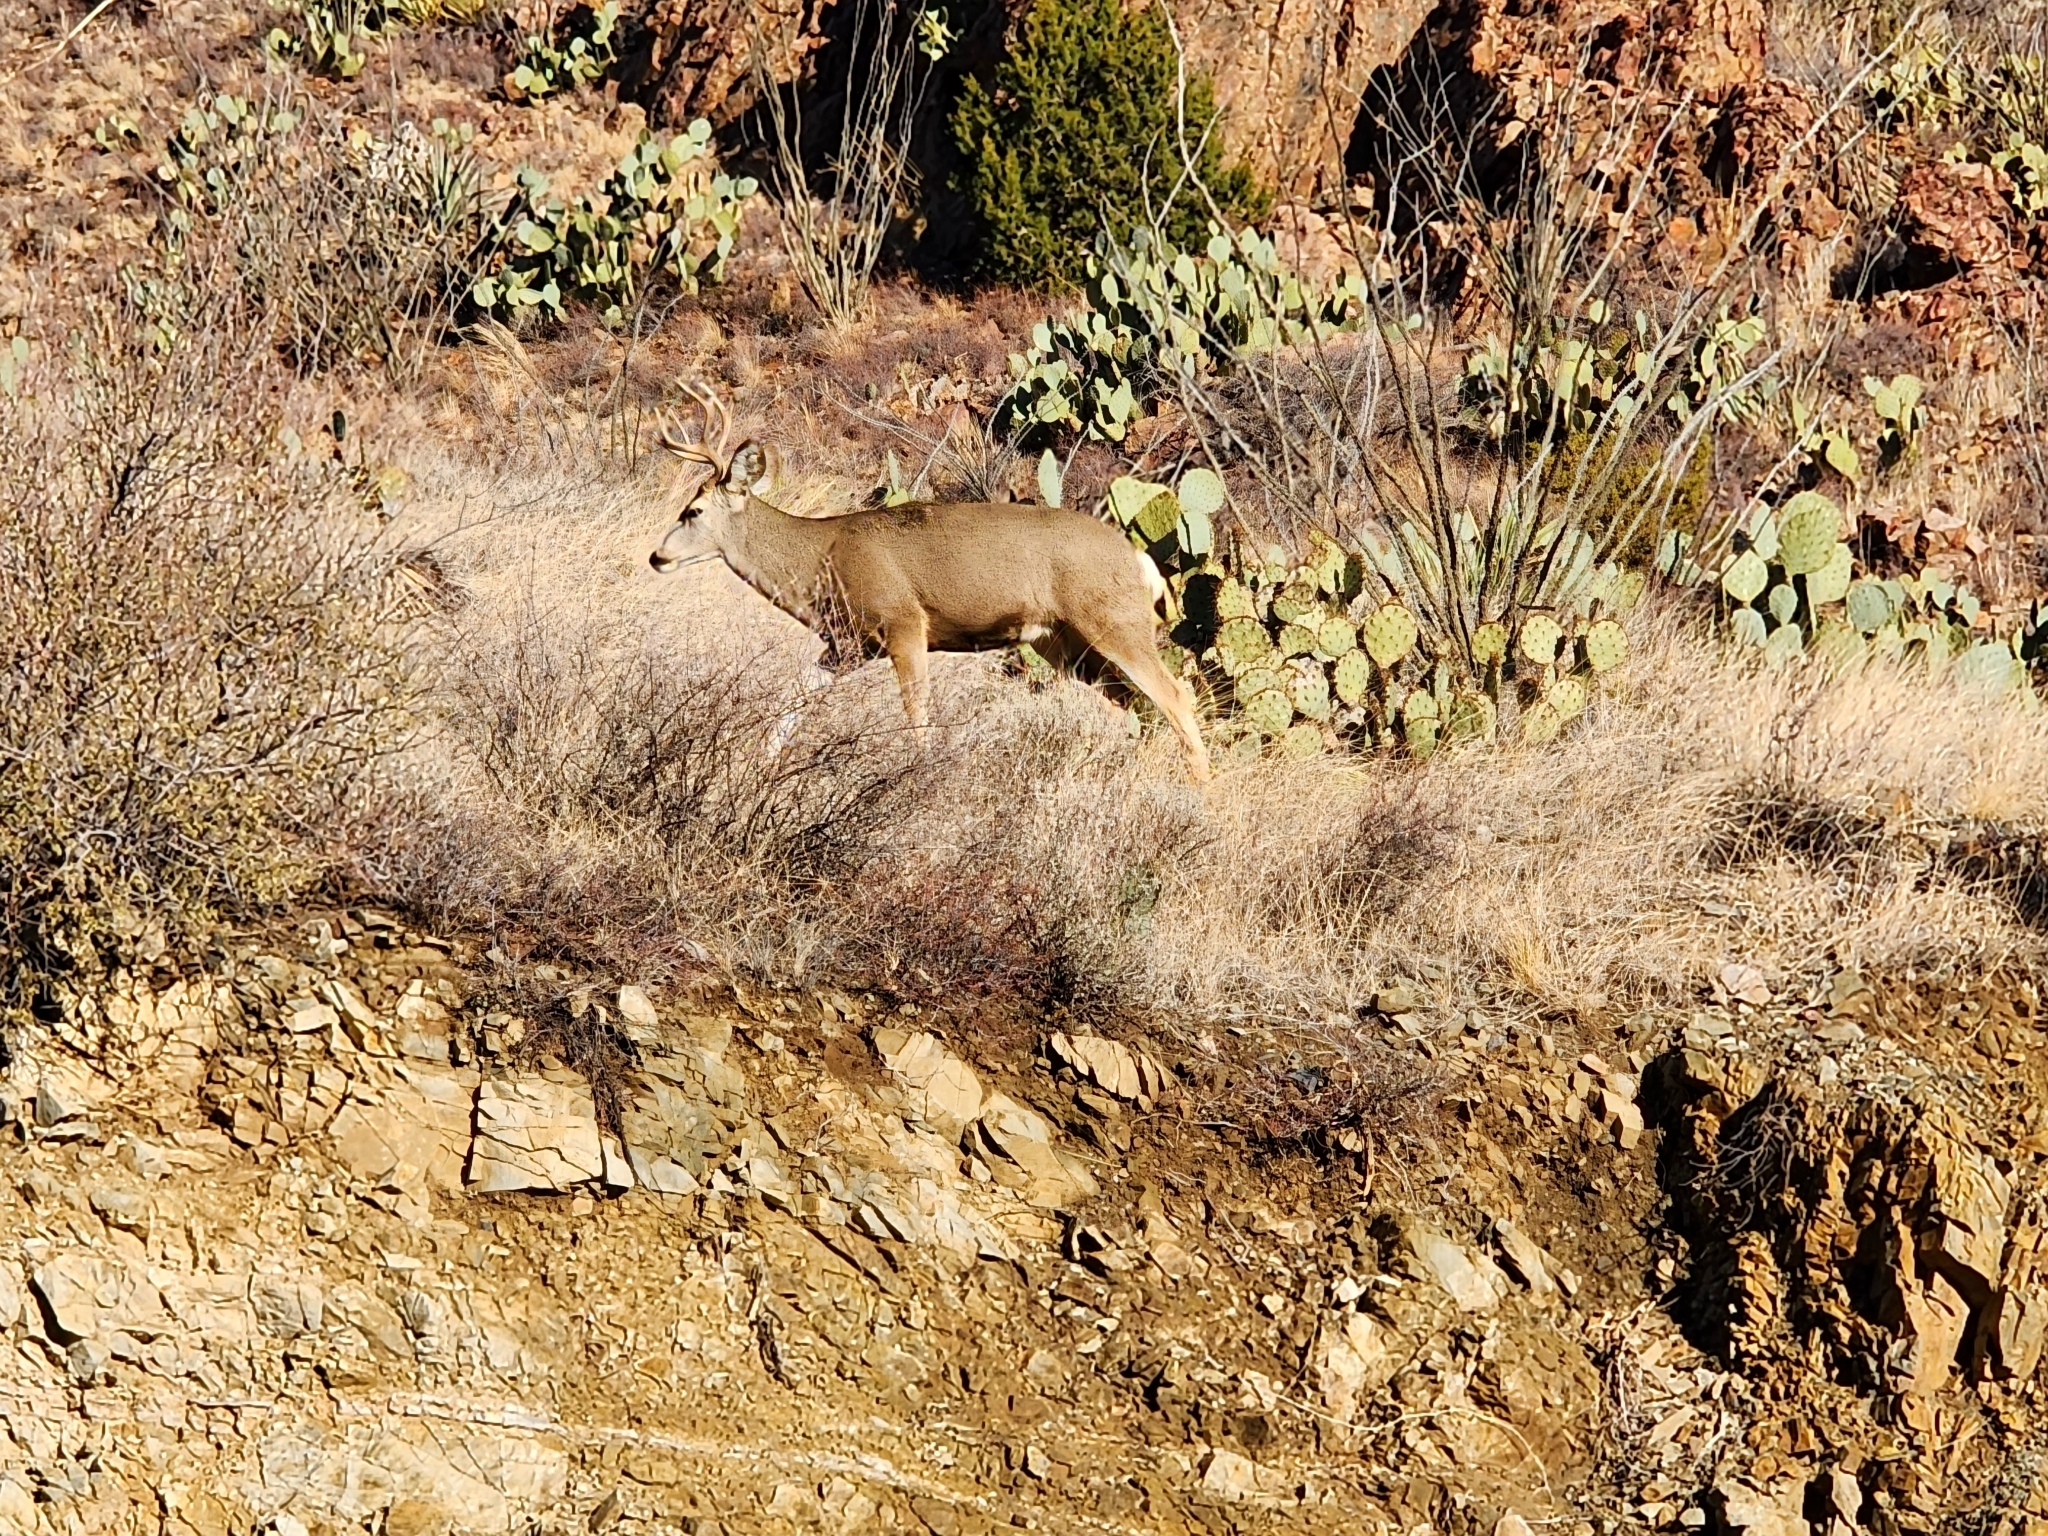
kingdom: Animalia
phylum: Chordata
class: Mammalia
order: Artiodactyla
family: Cervidae
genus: Odocoileus
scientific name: Odocoileus hemionus
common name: Mule deer
